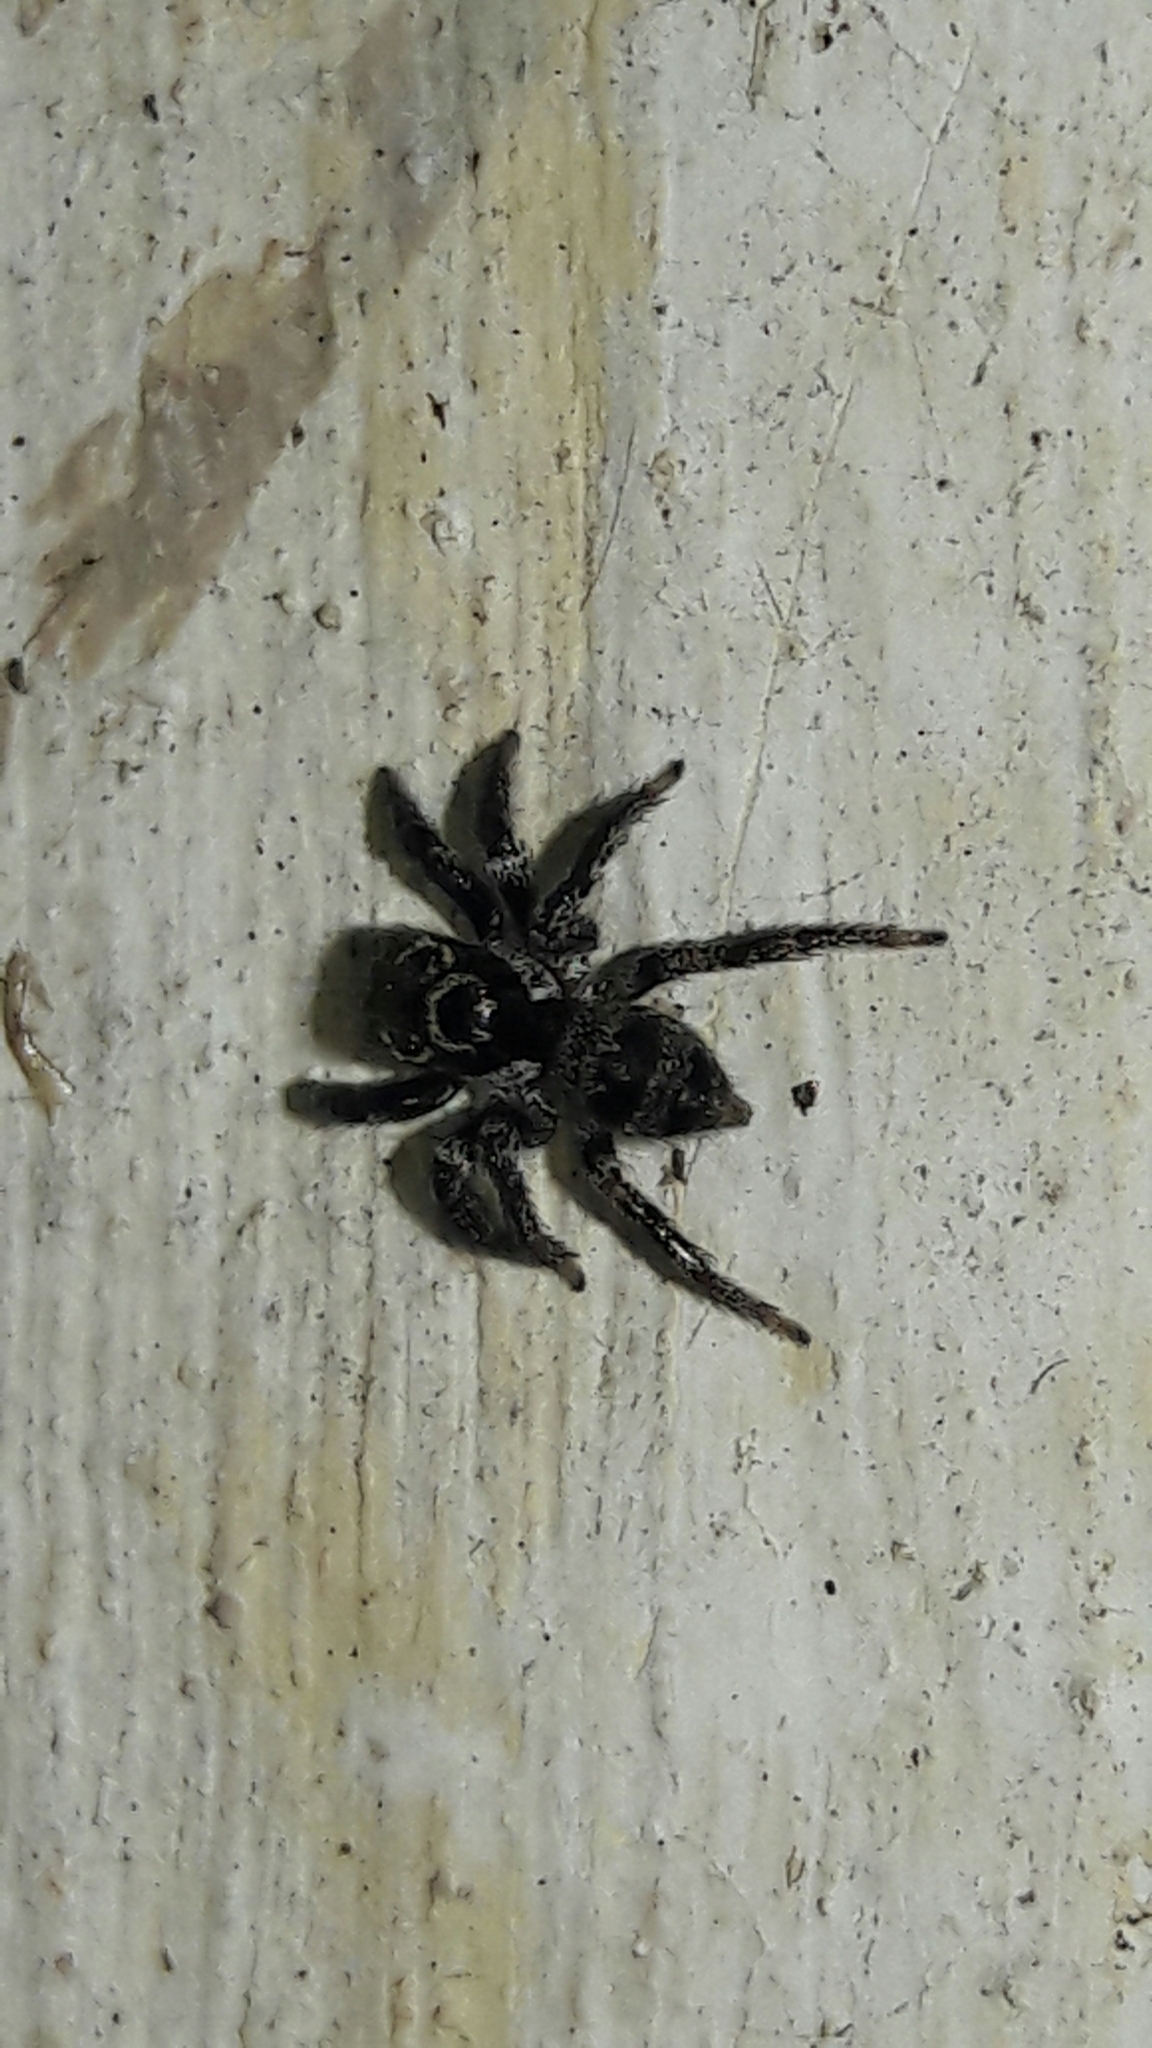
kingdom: Animalia
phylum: Arthropoda
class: Arachnida
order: Araneae
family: Salticidae
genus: Corythalia
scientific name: Corythalia conferta
